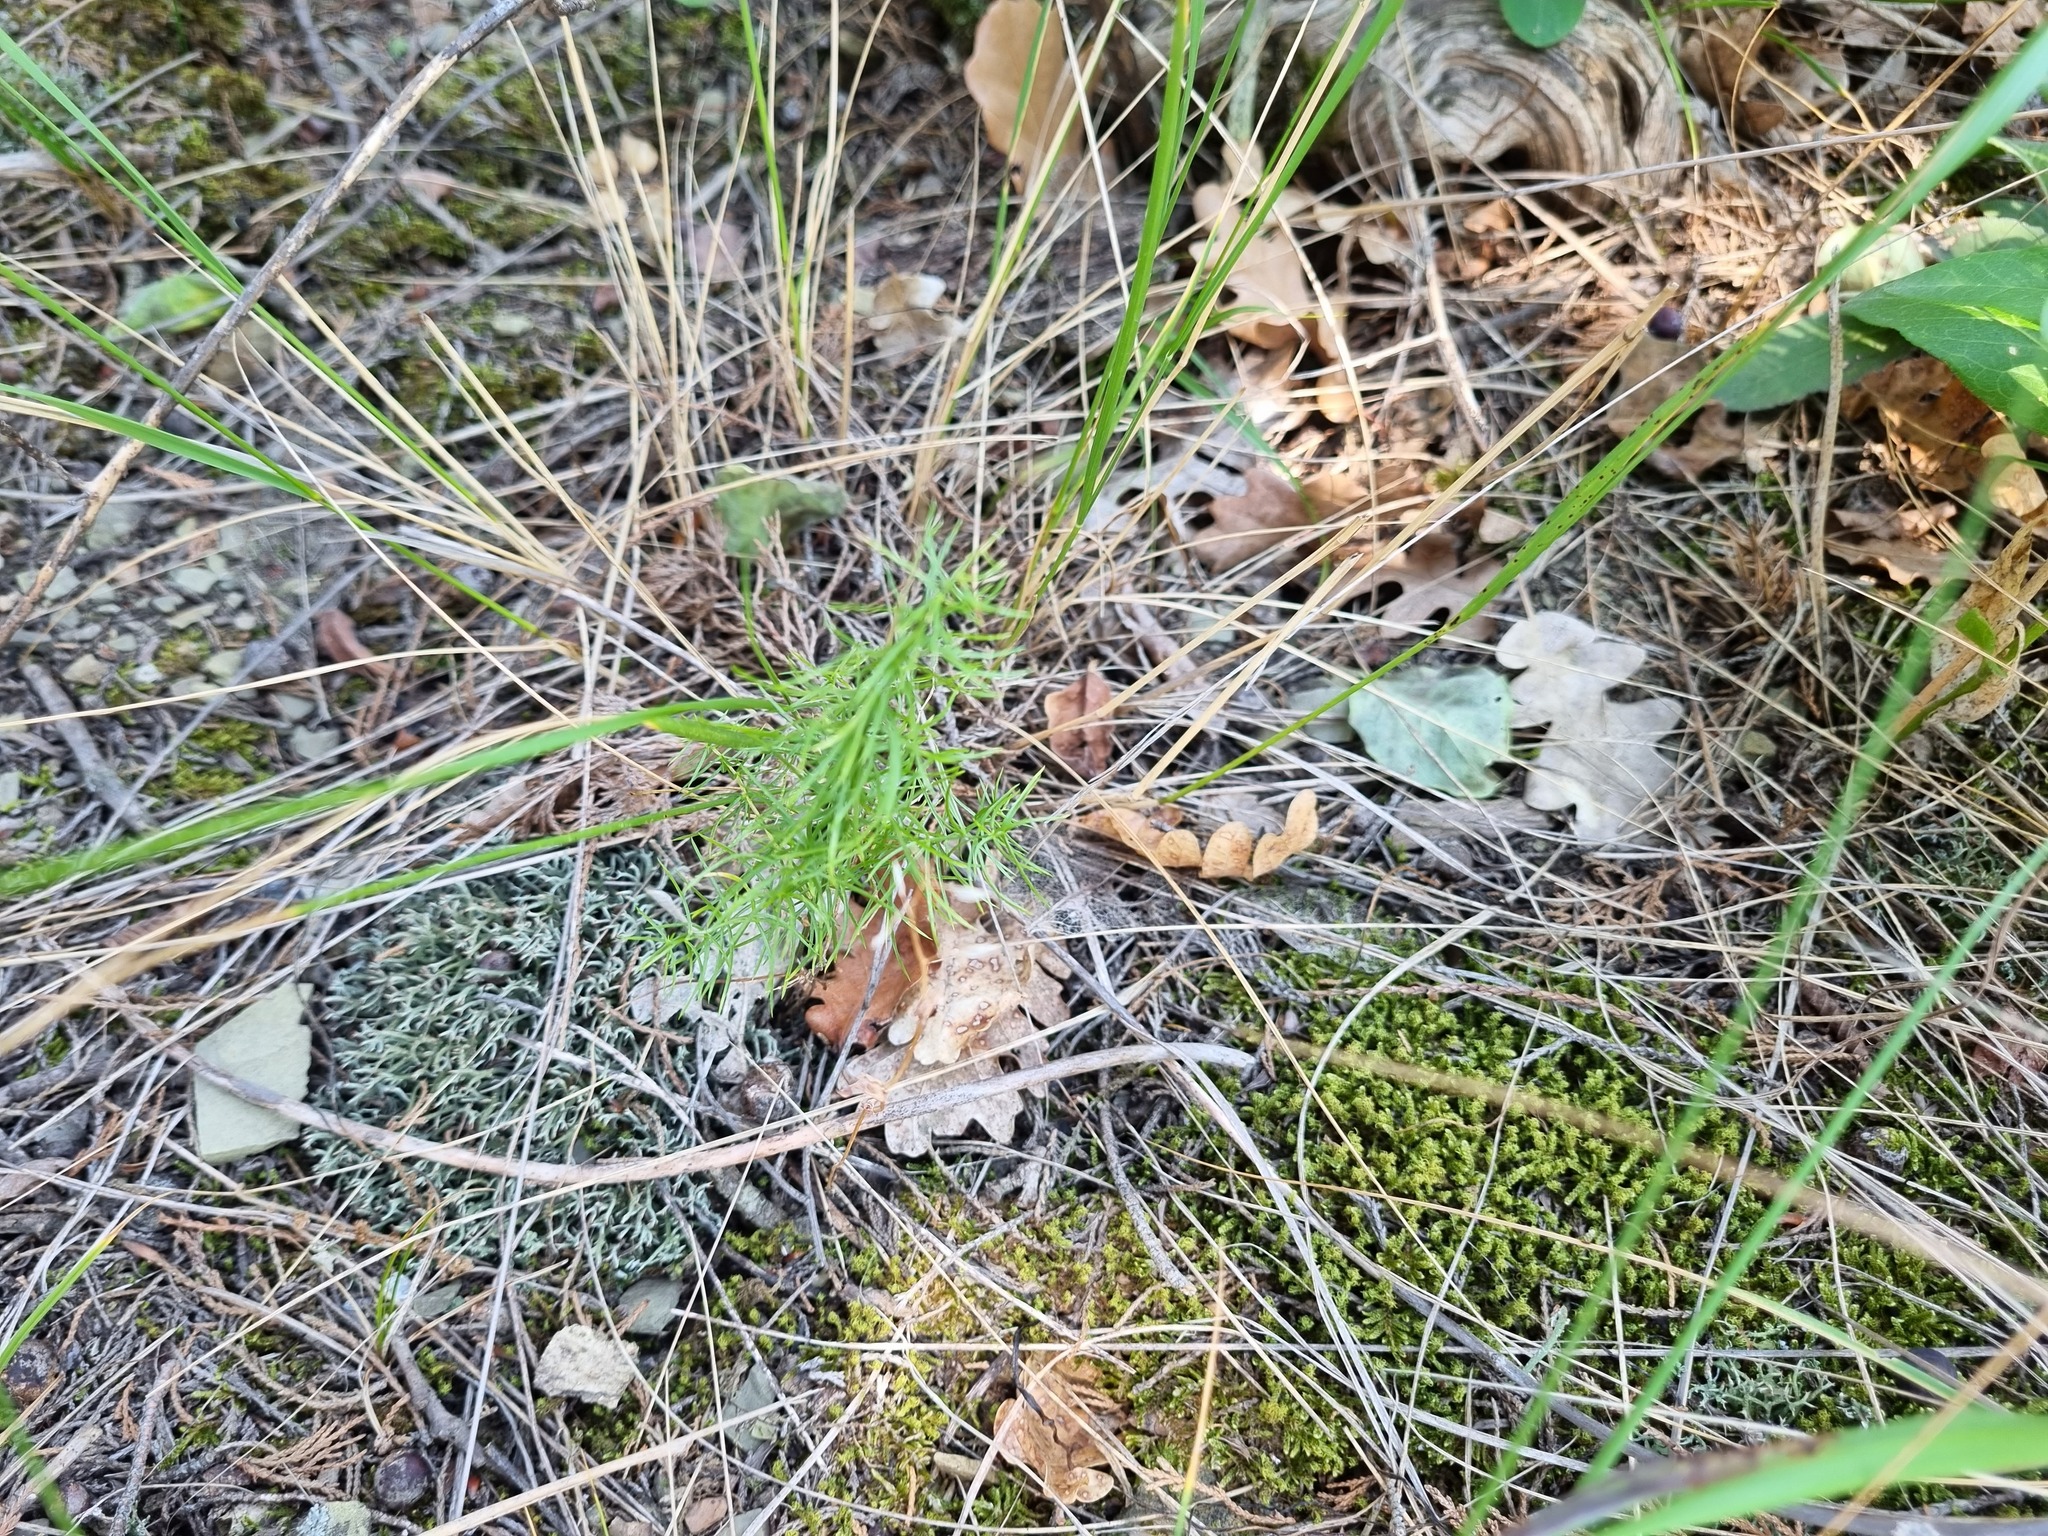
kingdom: Plantae
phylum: Tracheophyta
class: Liliopsida
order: Asparagales
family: Asparagaceae
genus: Asparagus
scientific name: Asparagus verticillatus
